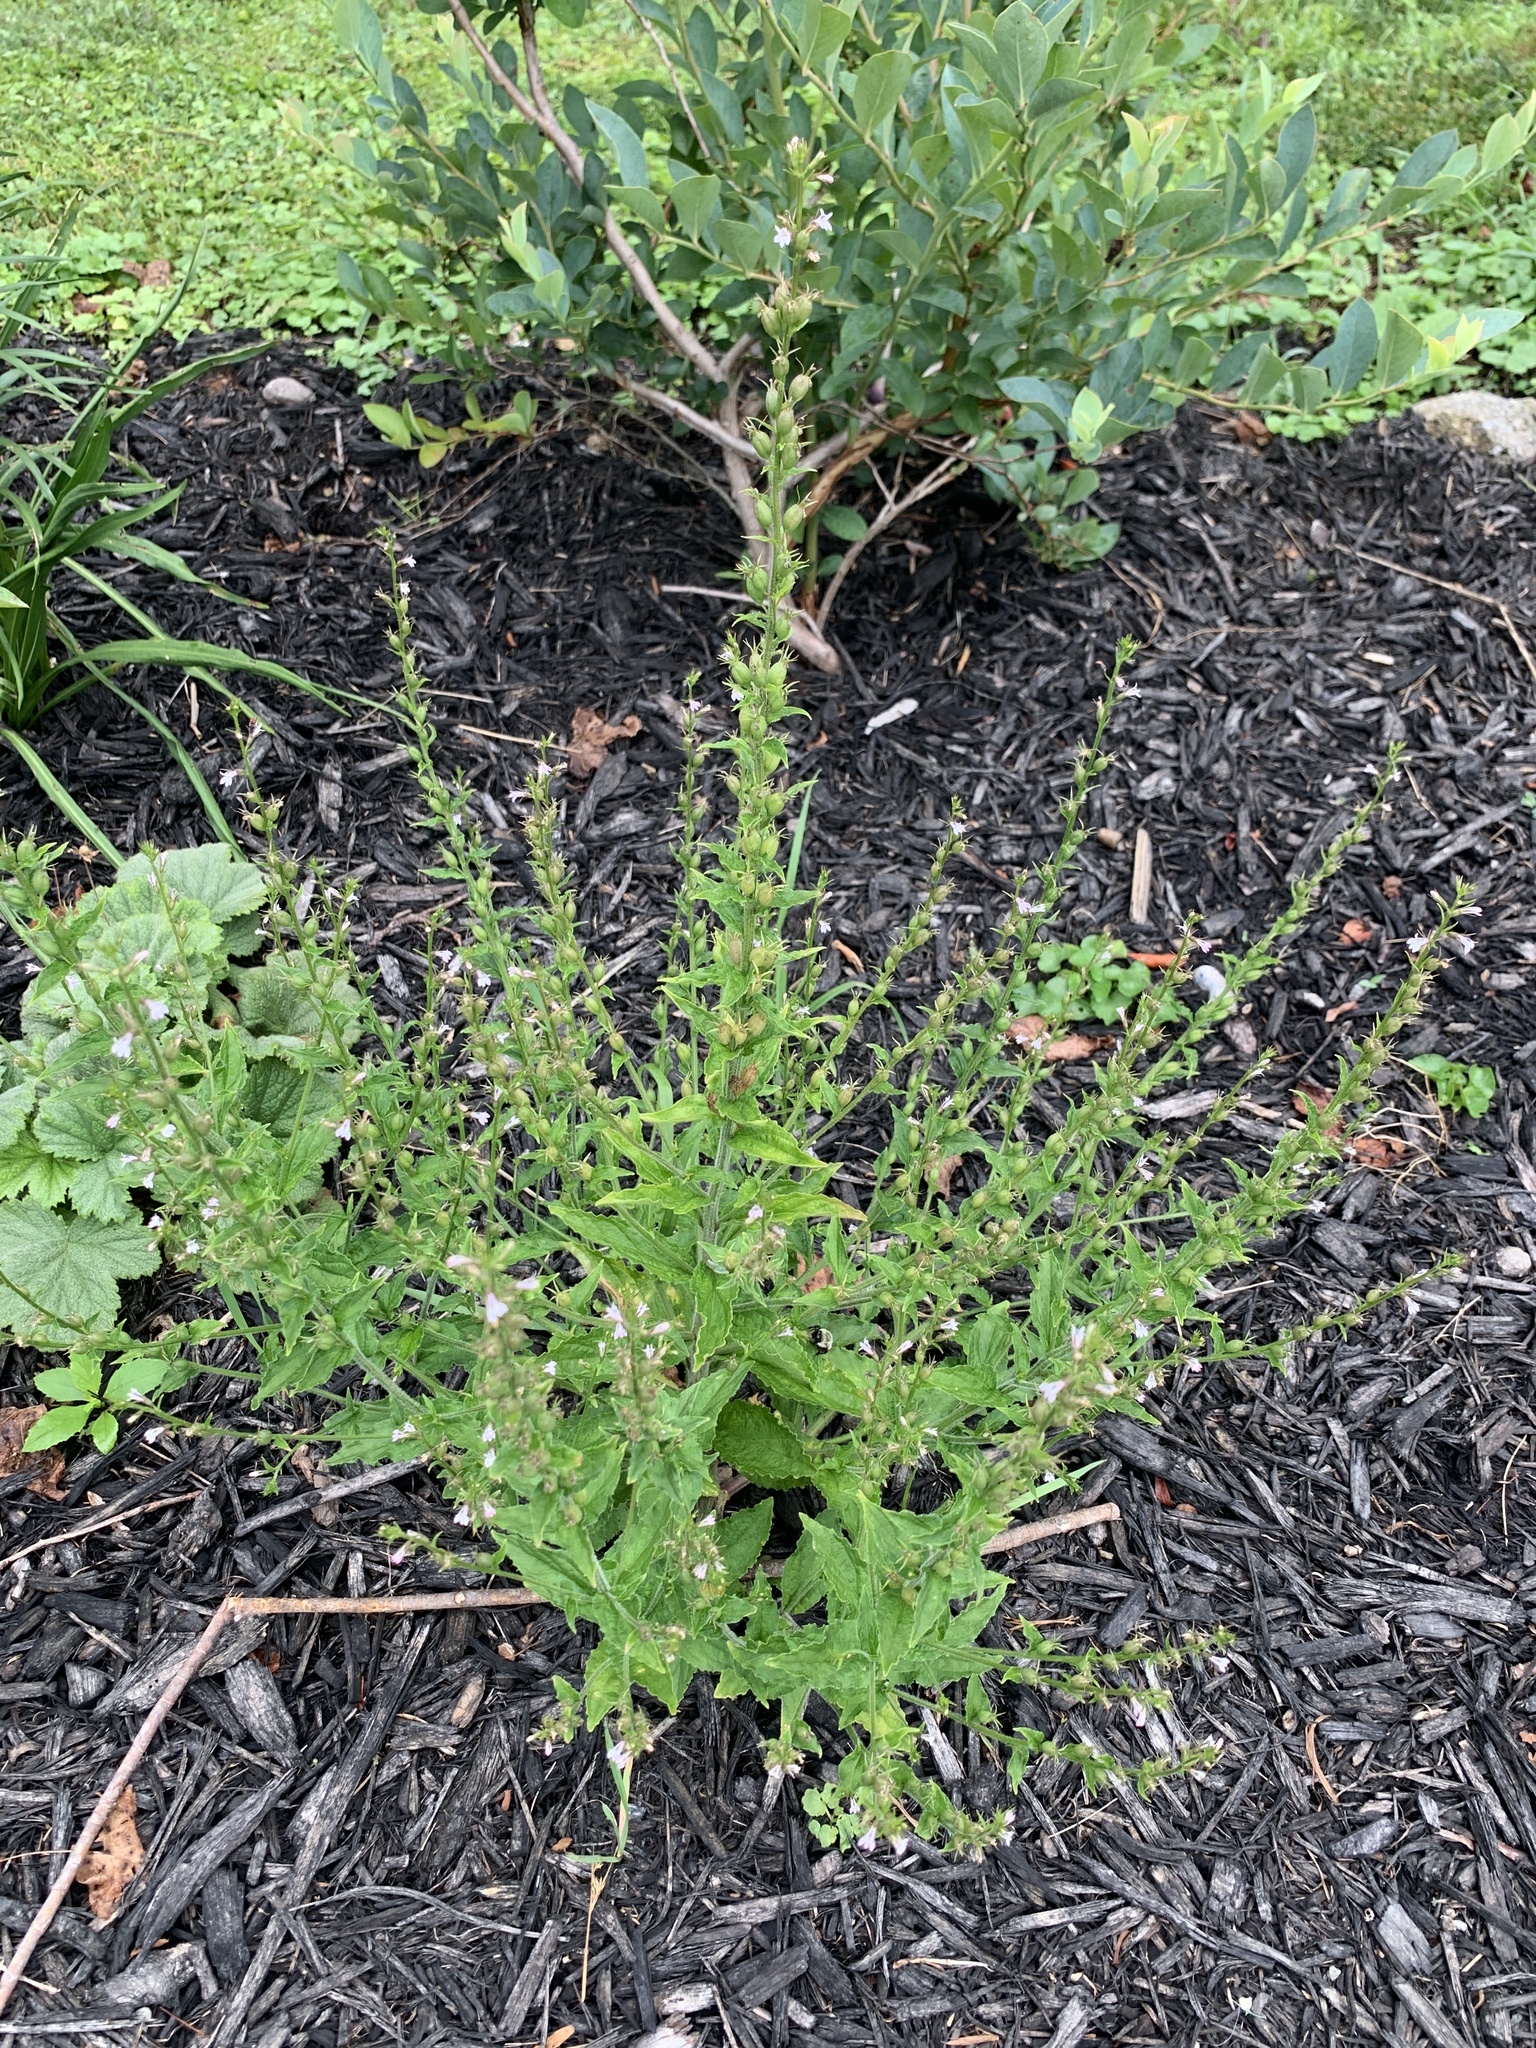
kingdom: Plantae
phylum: Tracheophyta
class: Magnoliopsida
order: Asterales
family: Campanulaceae
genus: Lobelia
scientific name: Lobelia inflata
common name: Indian tobacco
